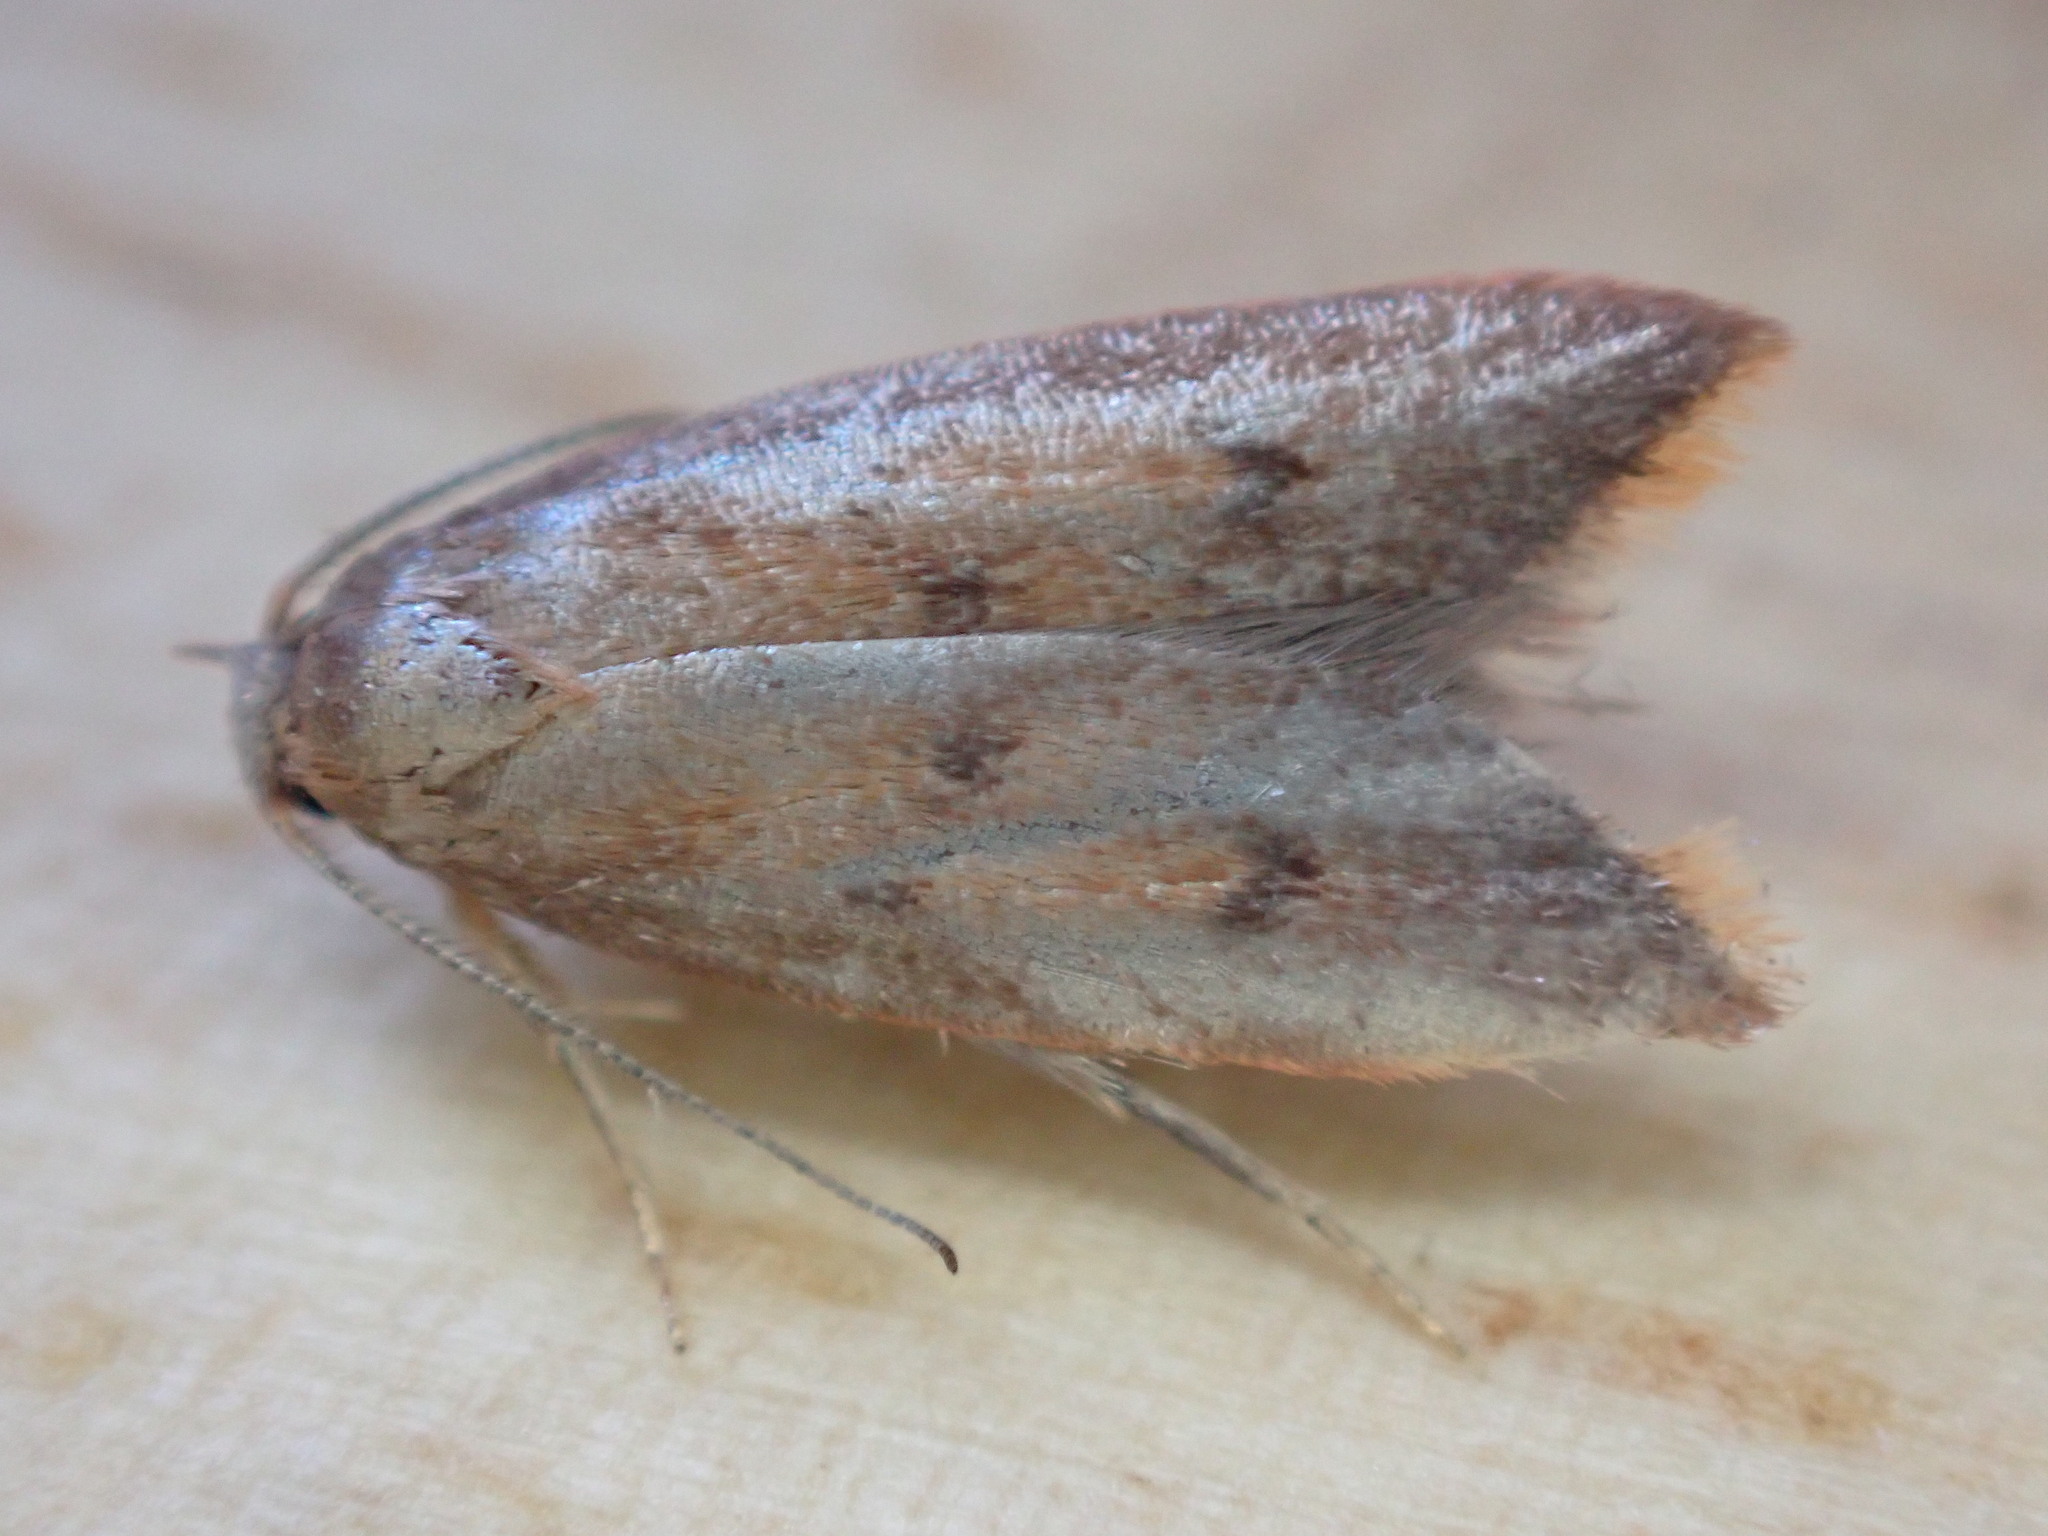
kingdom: Animalia
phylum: Arthropoda
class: Insecta
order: Lepidoptera
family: Oecophoridae
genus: Tachystola
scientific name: Tachystola acroxantha
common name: Ruddy streak
